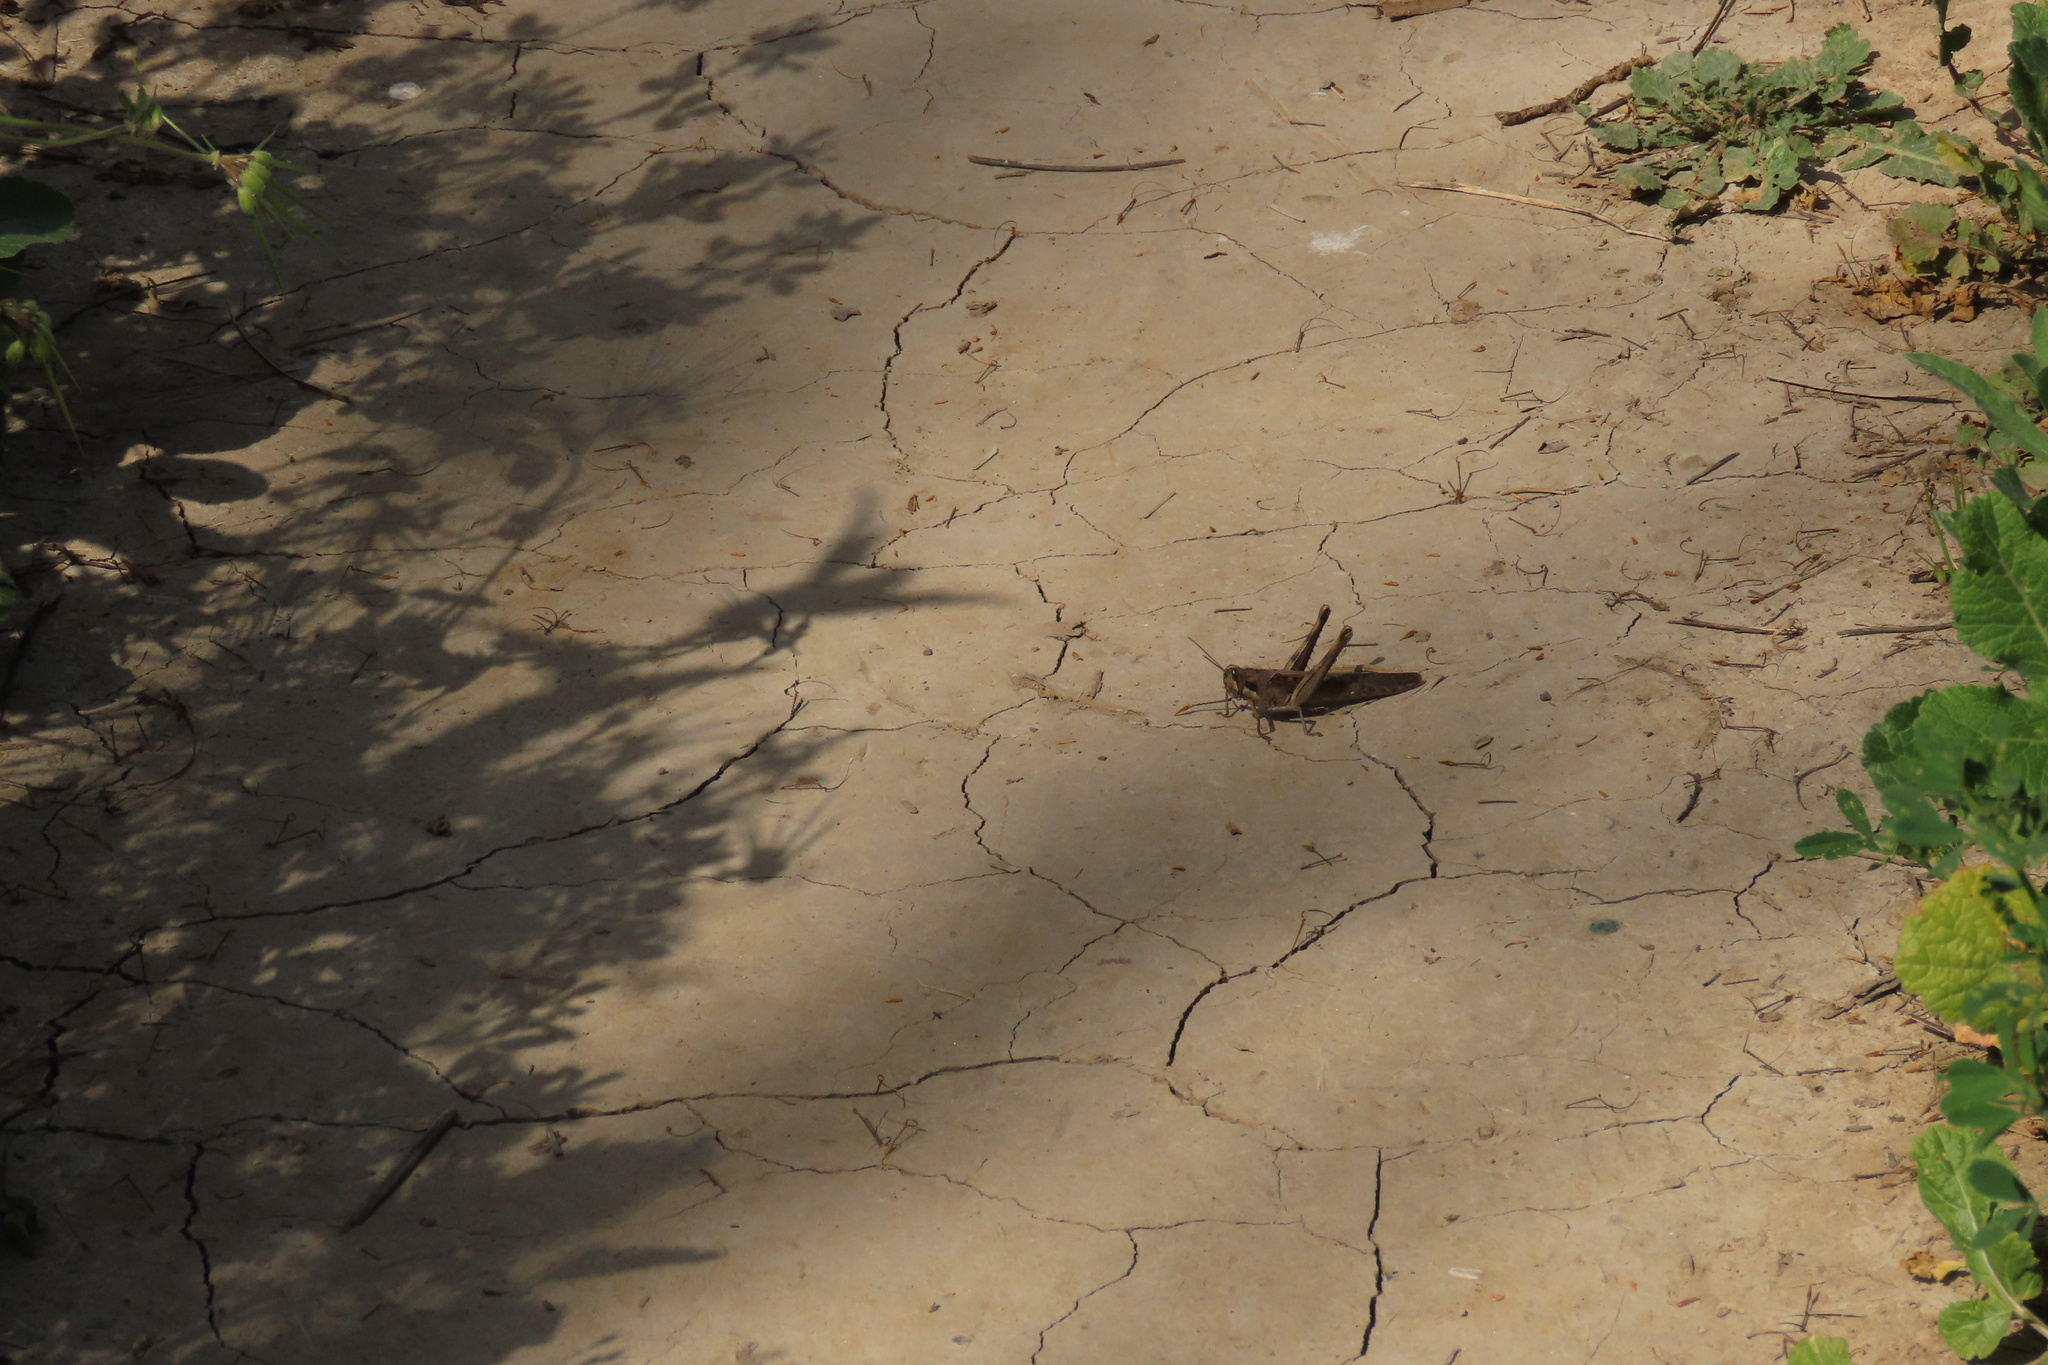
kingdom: Animalia
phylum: Arthropoda
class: Insecta
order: Orthoptera
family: Acrididae
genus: Schistocerca
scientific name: Schistocerca nitens
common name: Vagrant grasshopper
